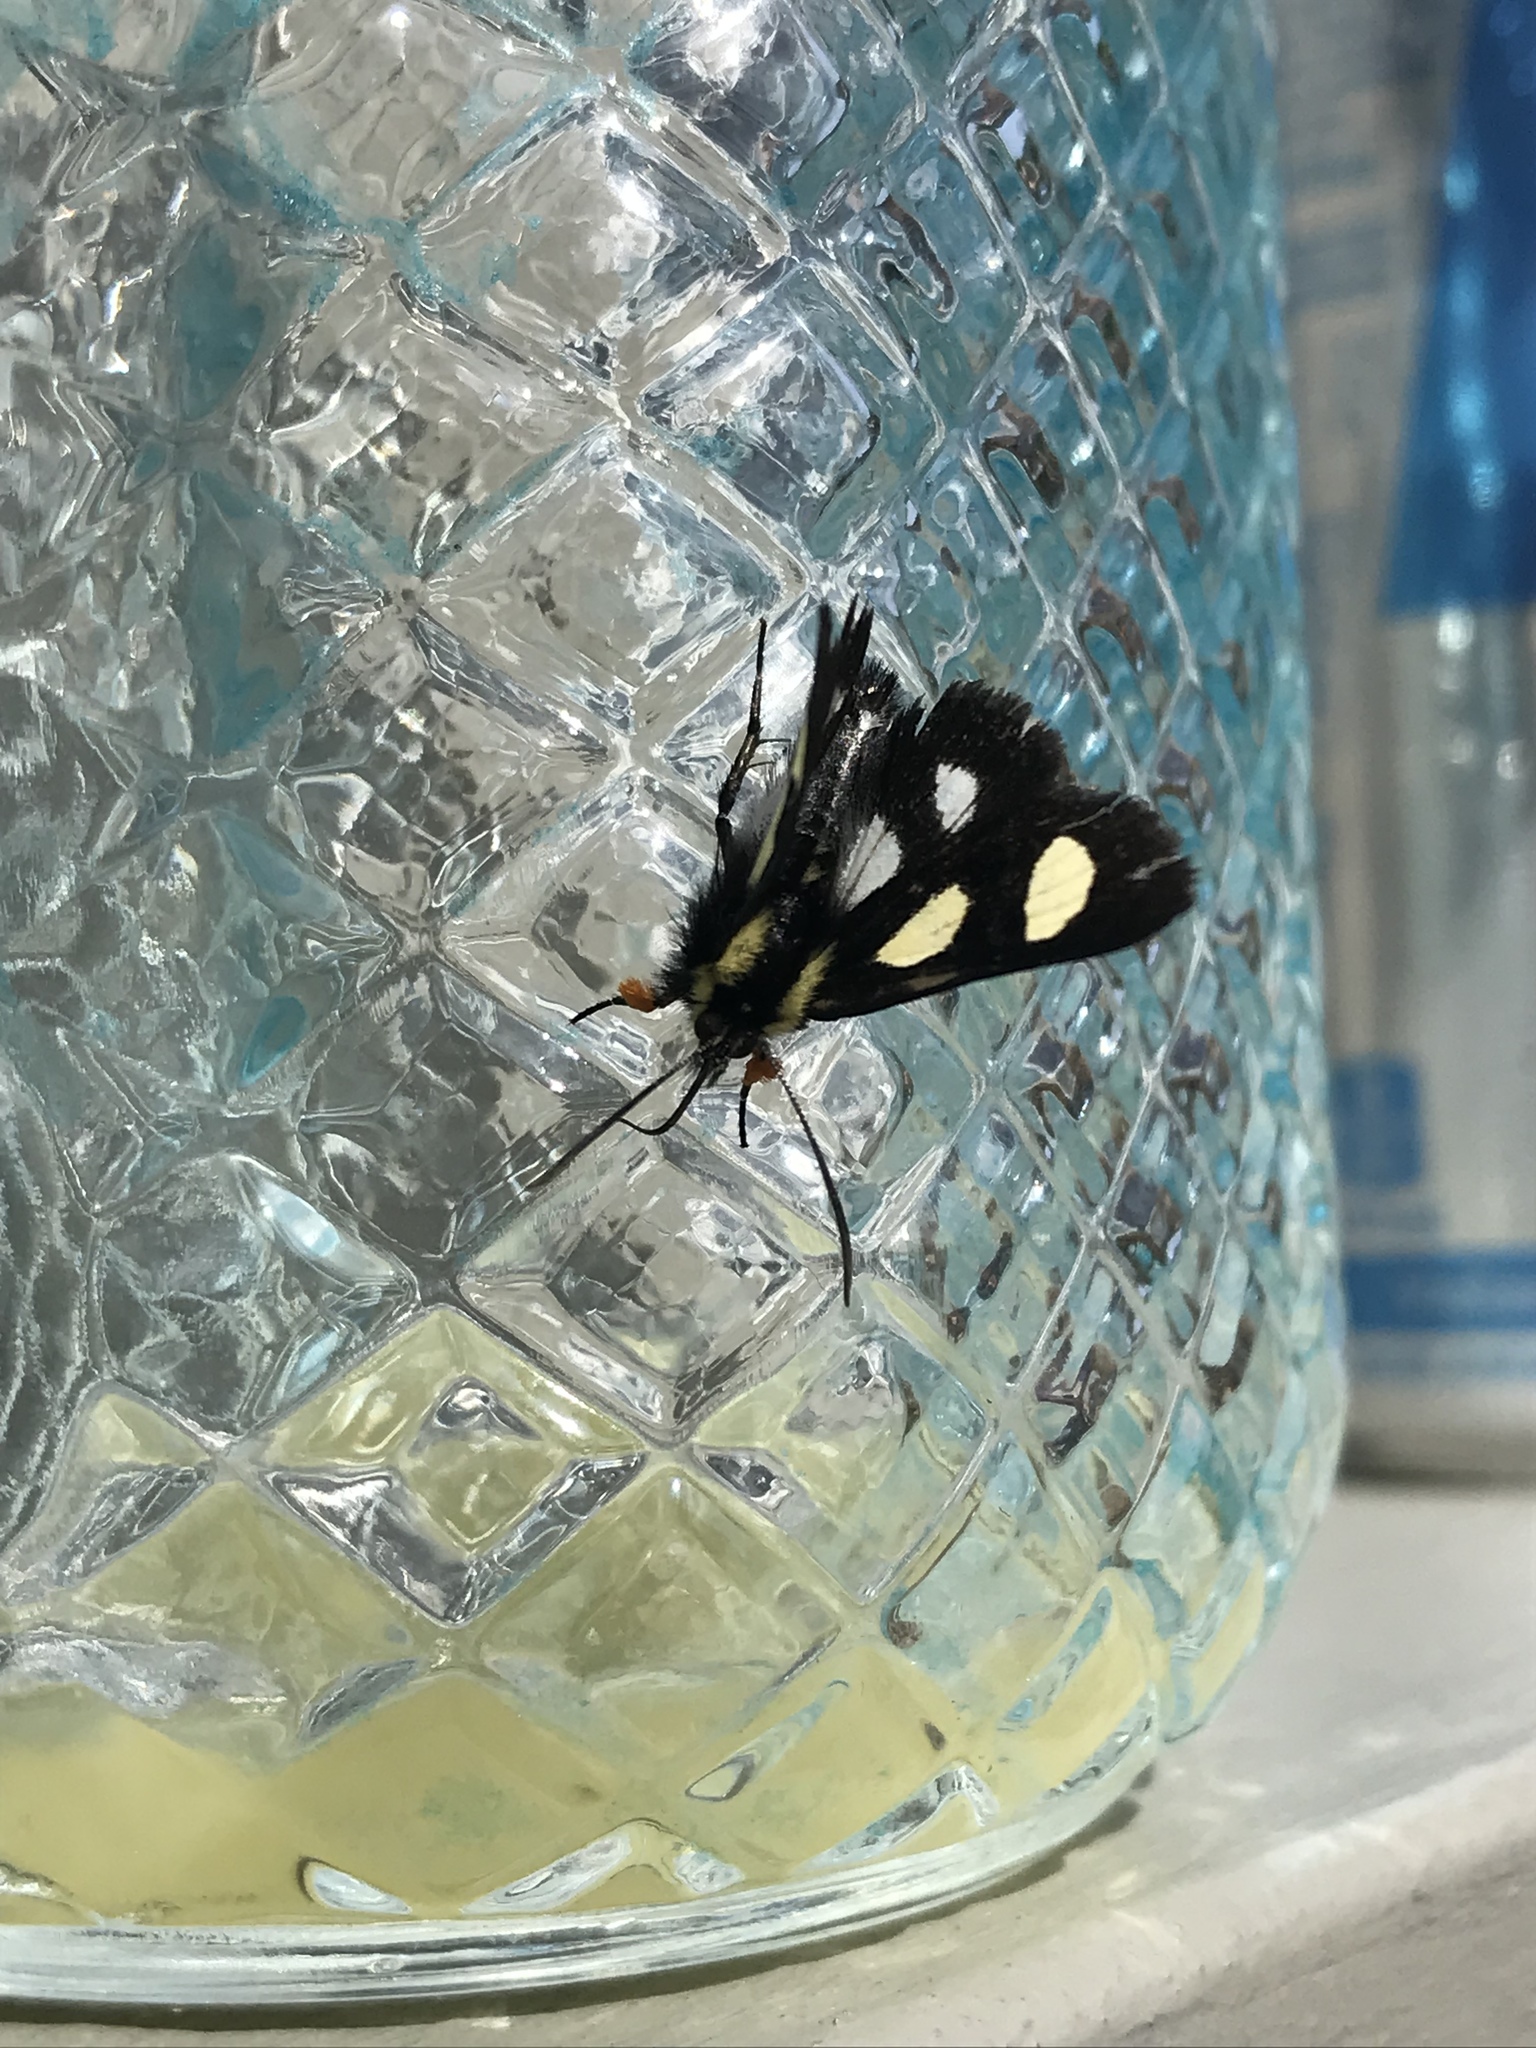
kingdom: Animalia
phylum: Arthropoda
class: Insecta
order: Lepidoptera
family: Noctuidae
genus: Alypia
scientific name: Alypia octomaculata
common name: Eight-spotted forester
